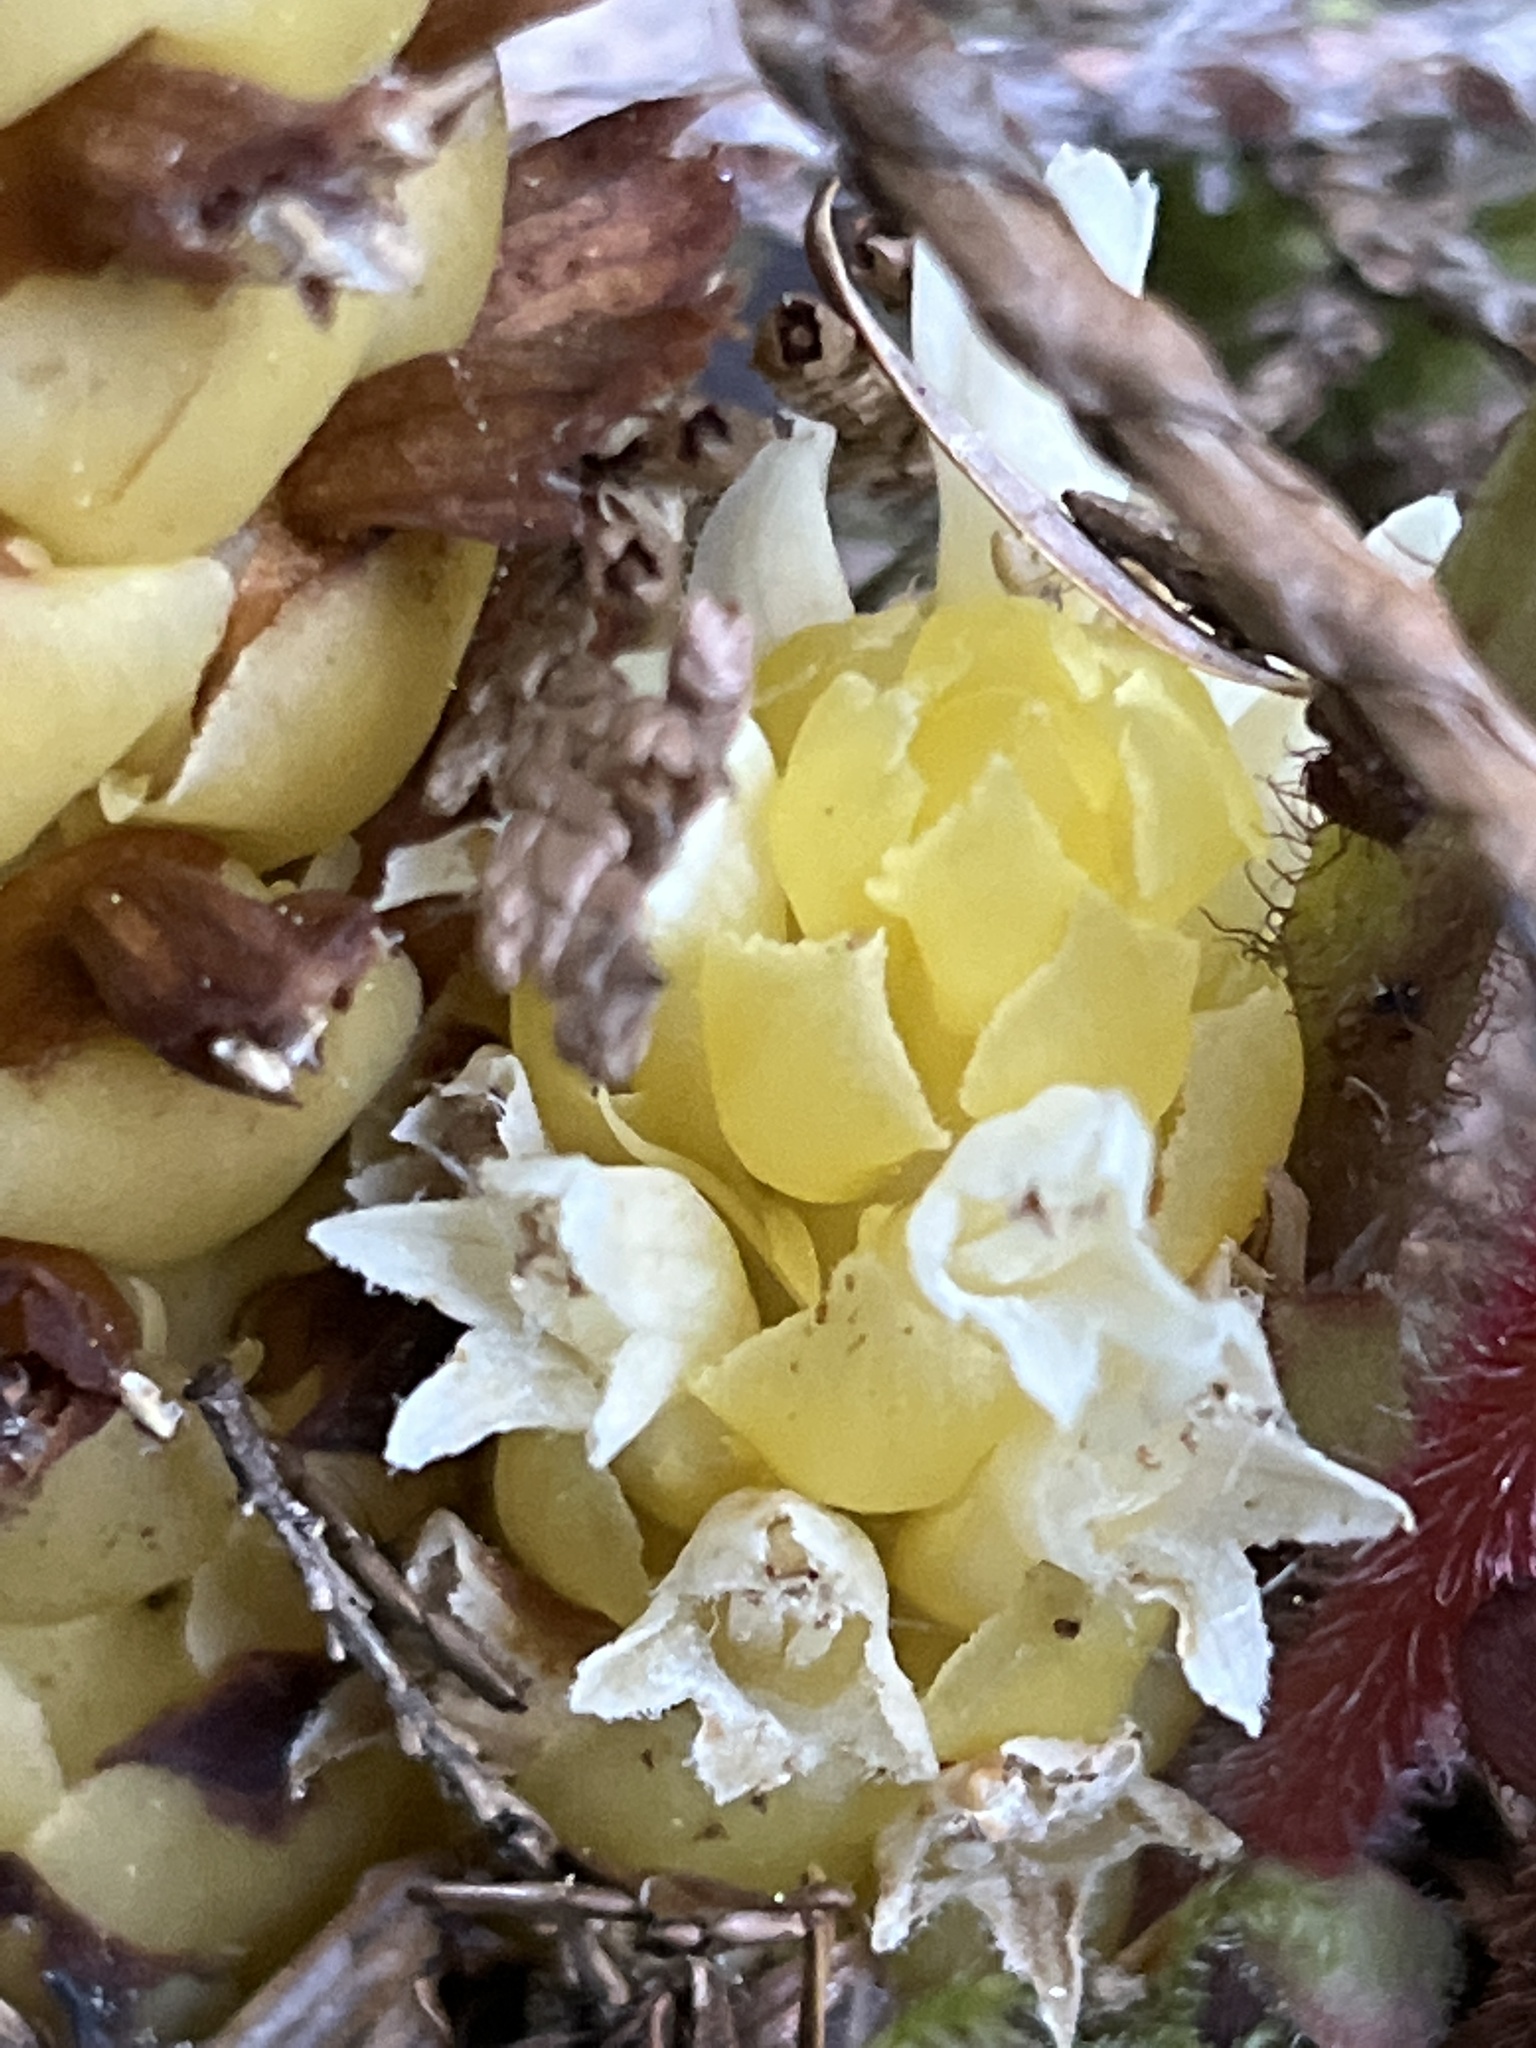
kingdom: Plantae
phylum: Tracheophyta
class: Magnoliopsida
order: Lamiales
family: Orobanchaceae
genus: Kopsiopsis
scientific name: Kopsiopsis hookeri
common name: Hooker's groundcone
